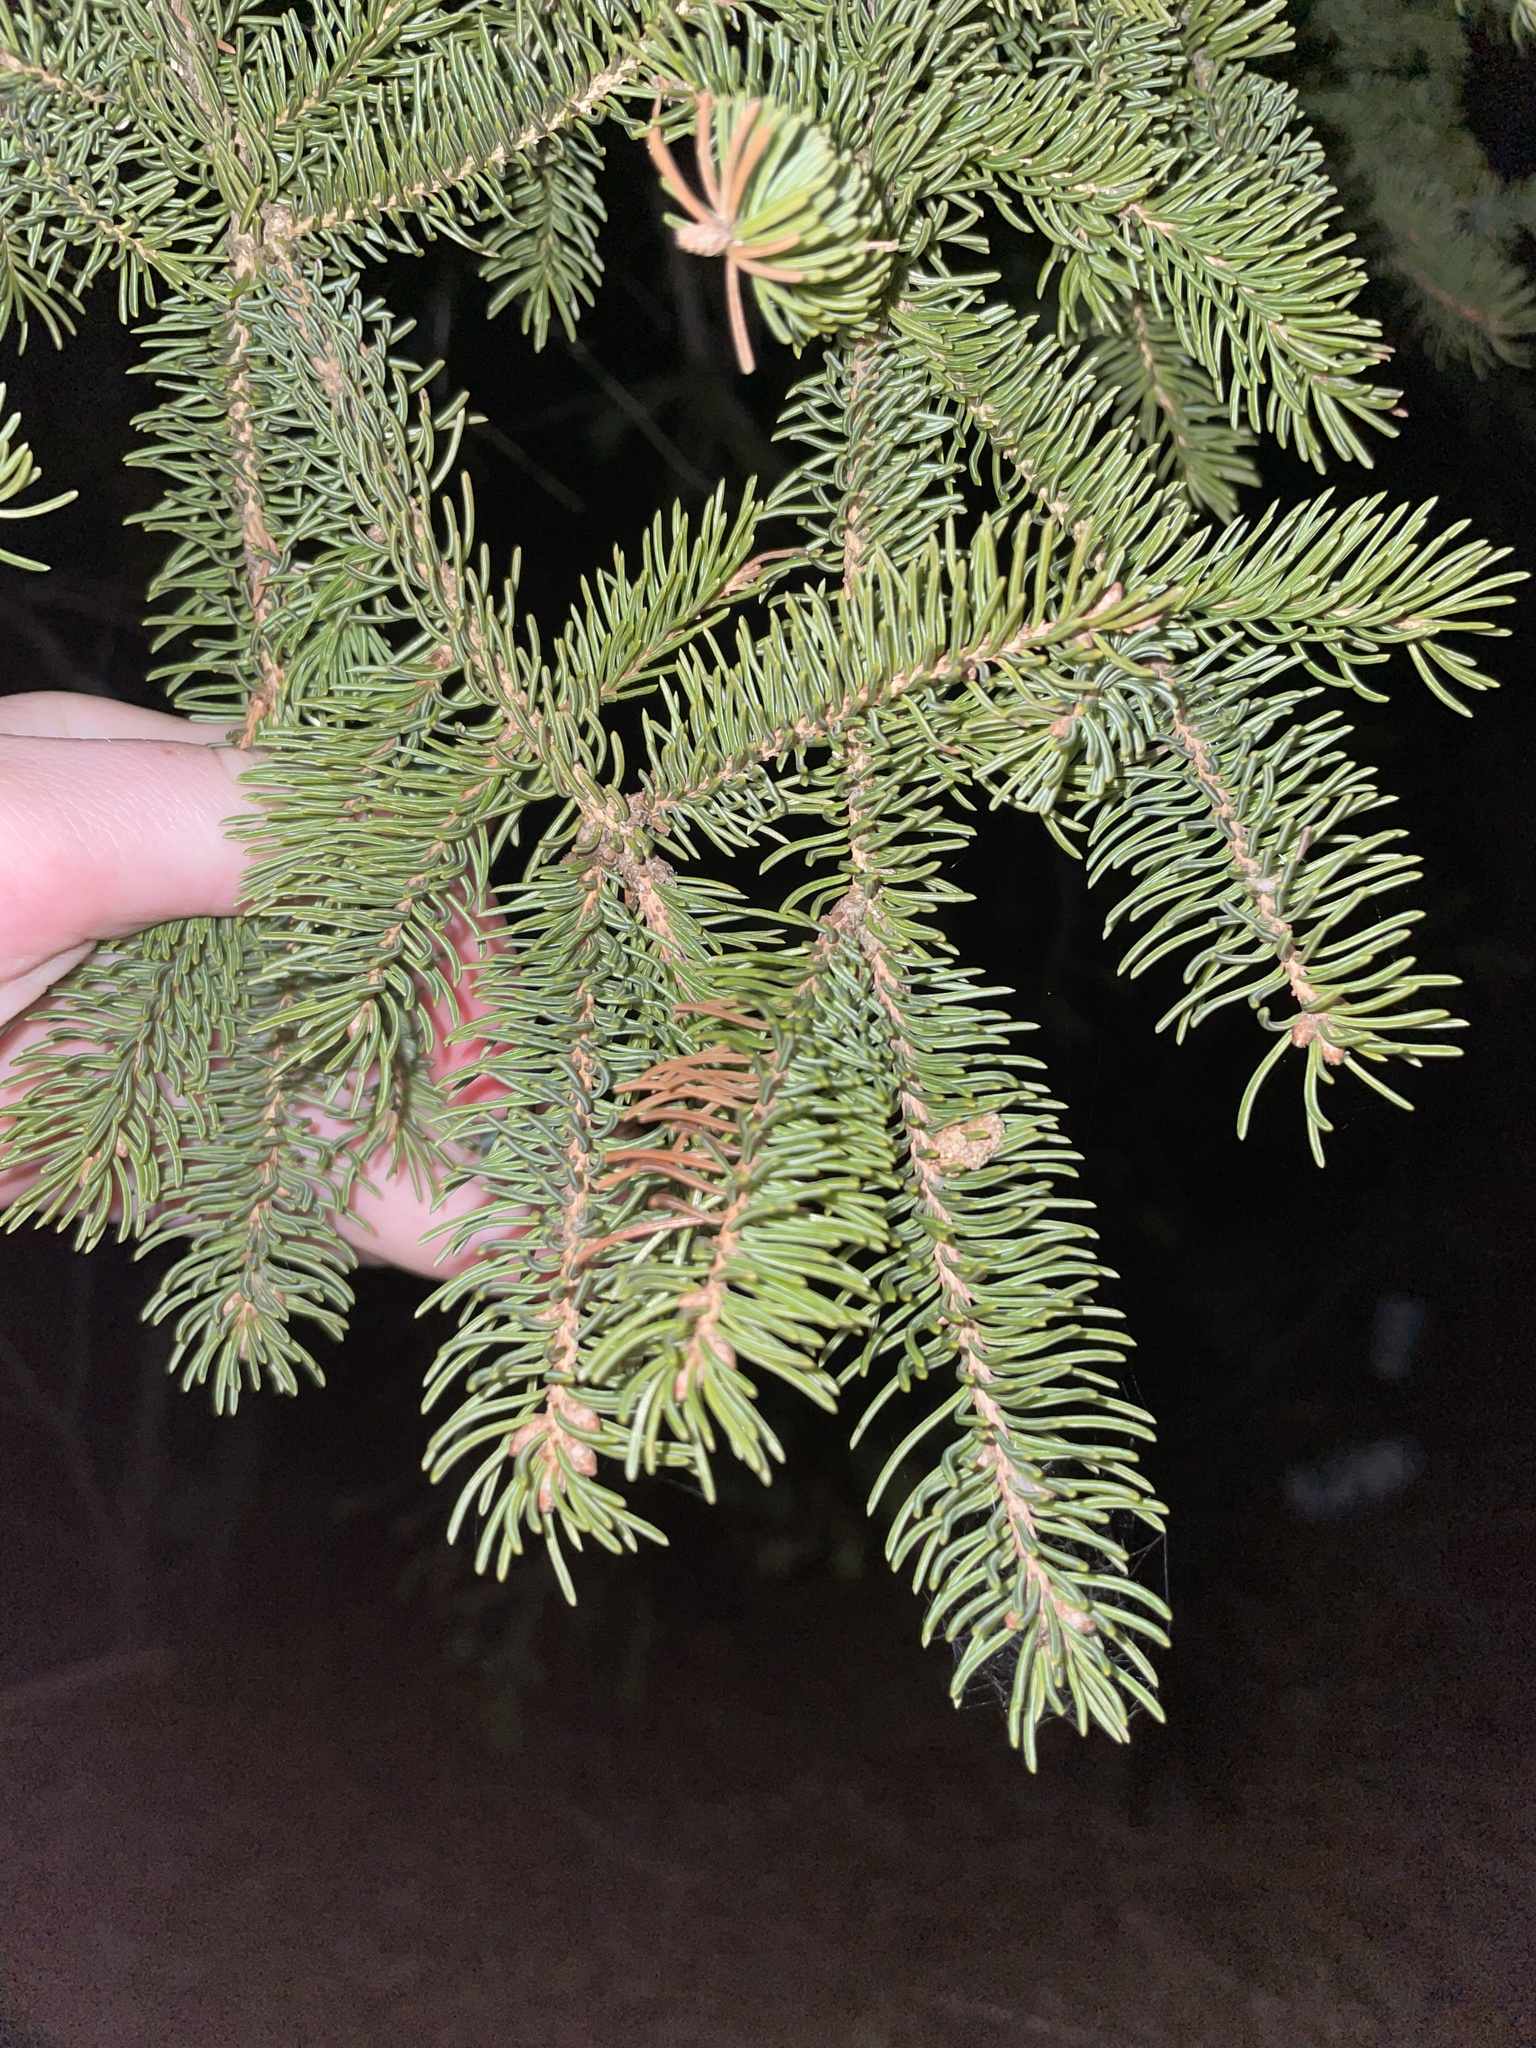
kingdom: Plantae
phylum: Tracheophyta
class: Pinopsida
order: Pinales
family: Pinaceae
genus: Picea
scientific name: Picea glauca
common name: White spruce
